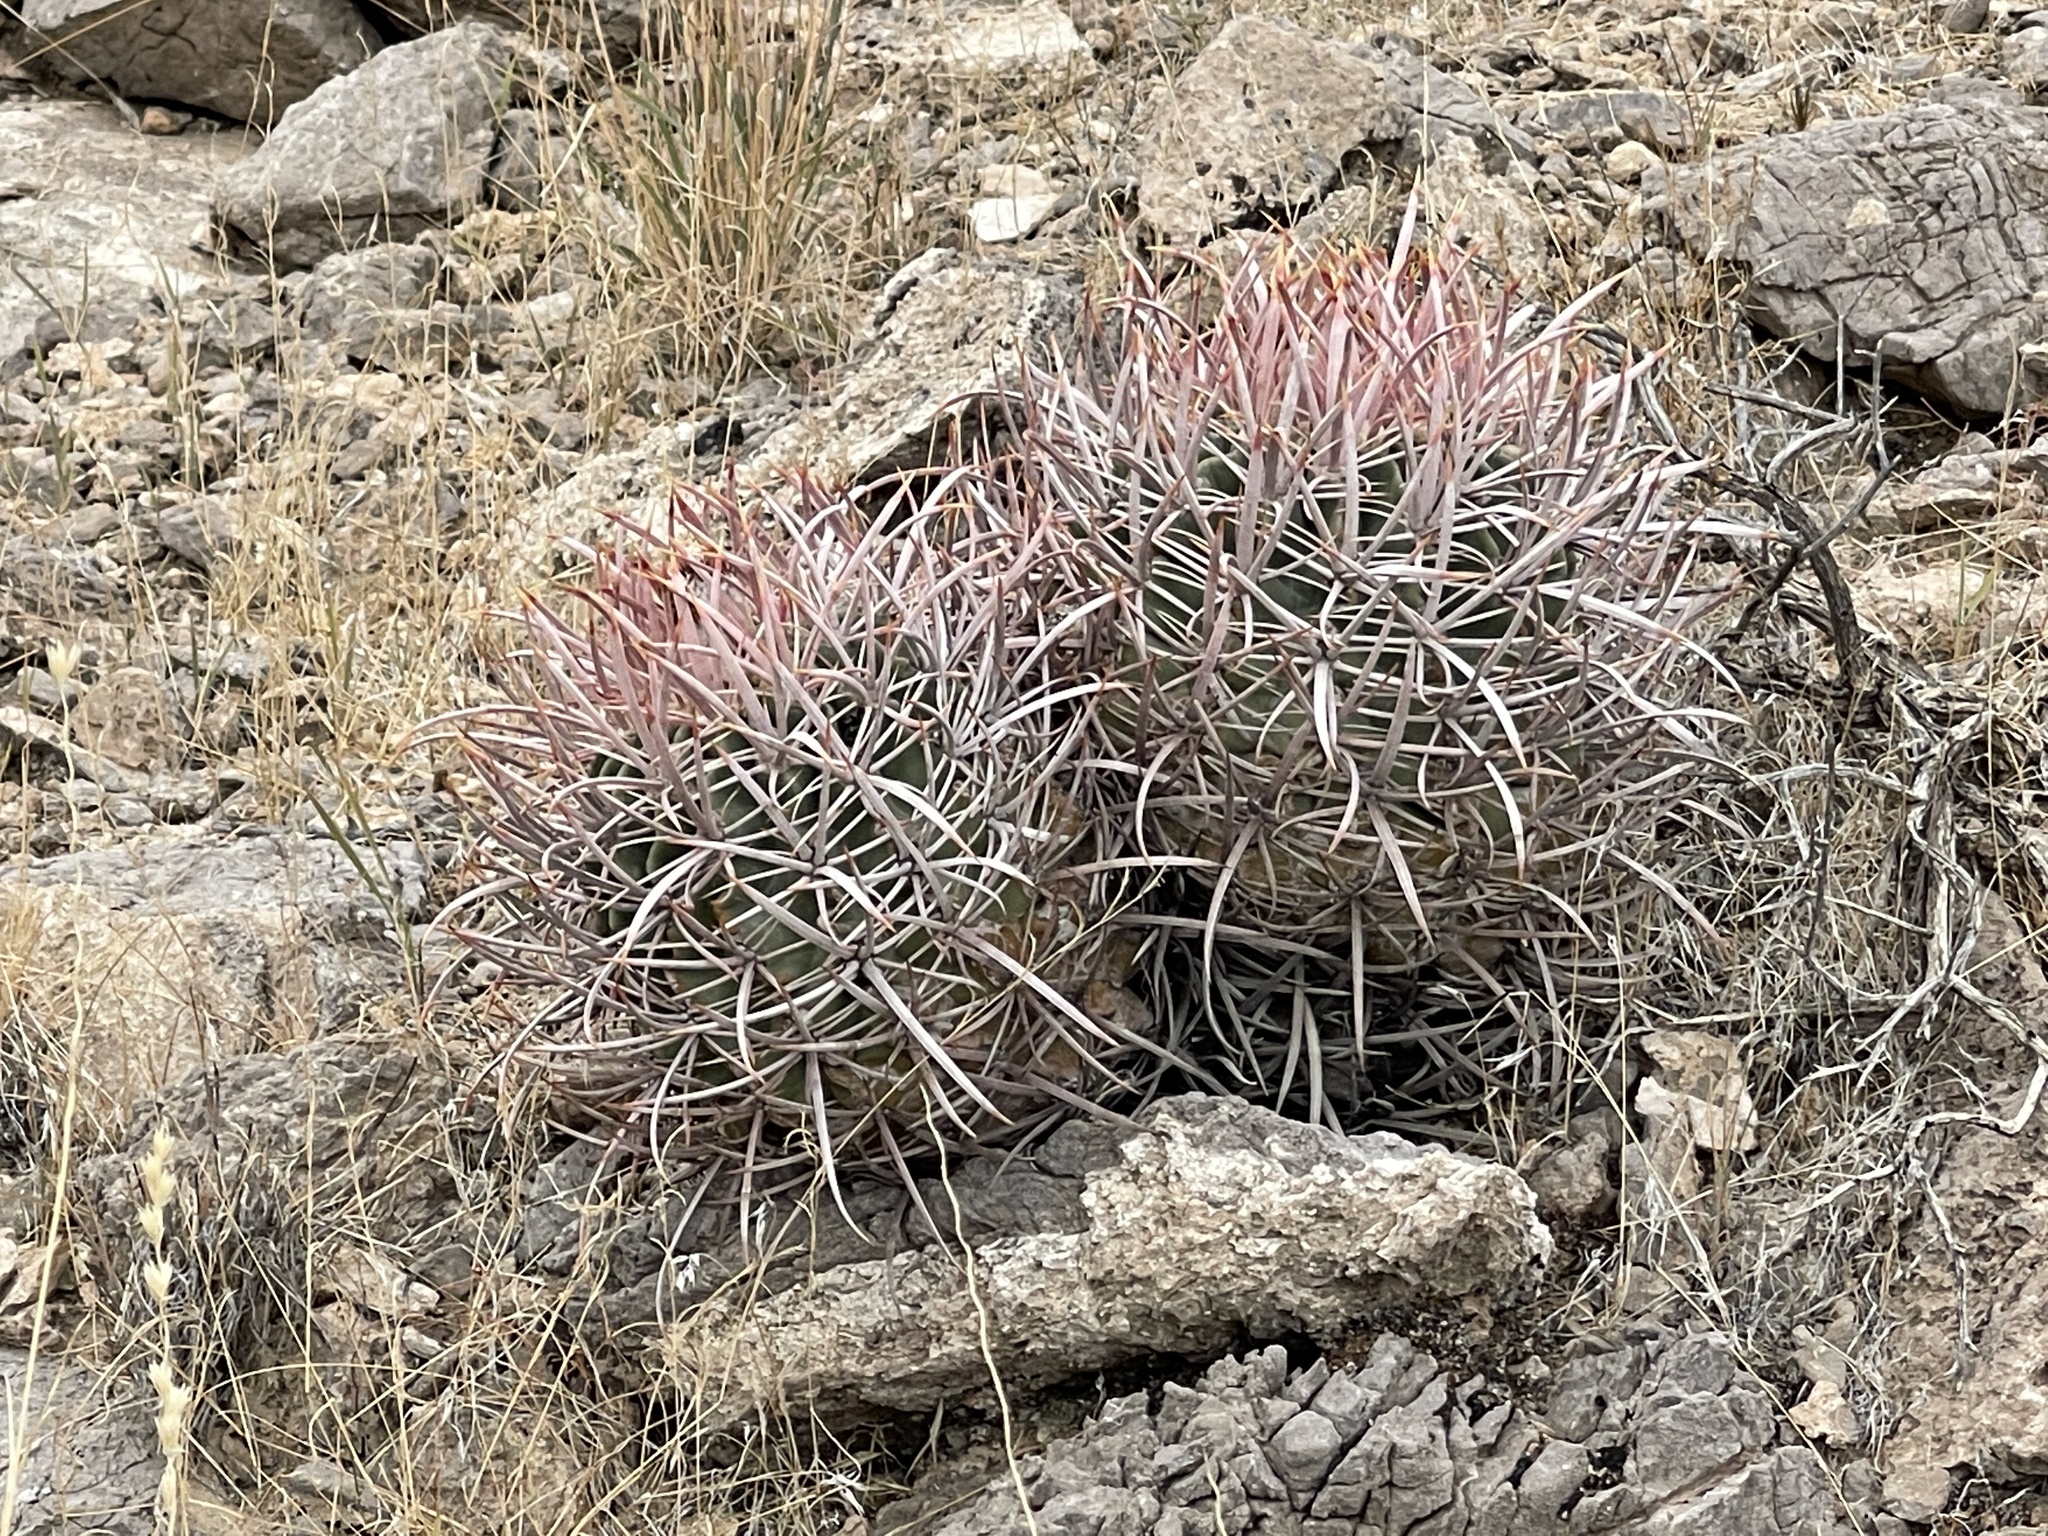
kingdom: Plantae
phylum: Tracheophyta
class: Magnoliopsida
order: Caryophyllales
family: Cactaceae
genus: Echinocactus
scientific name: Echinocactus polycephalus
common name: Cottontop cactus
